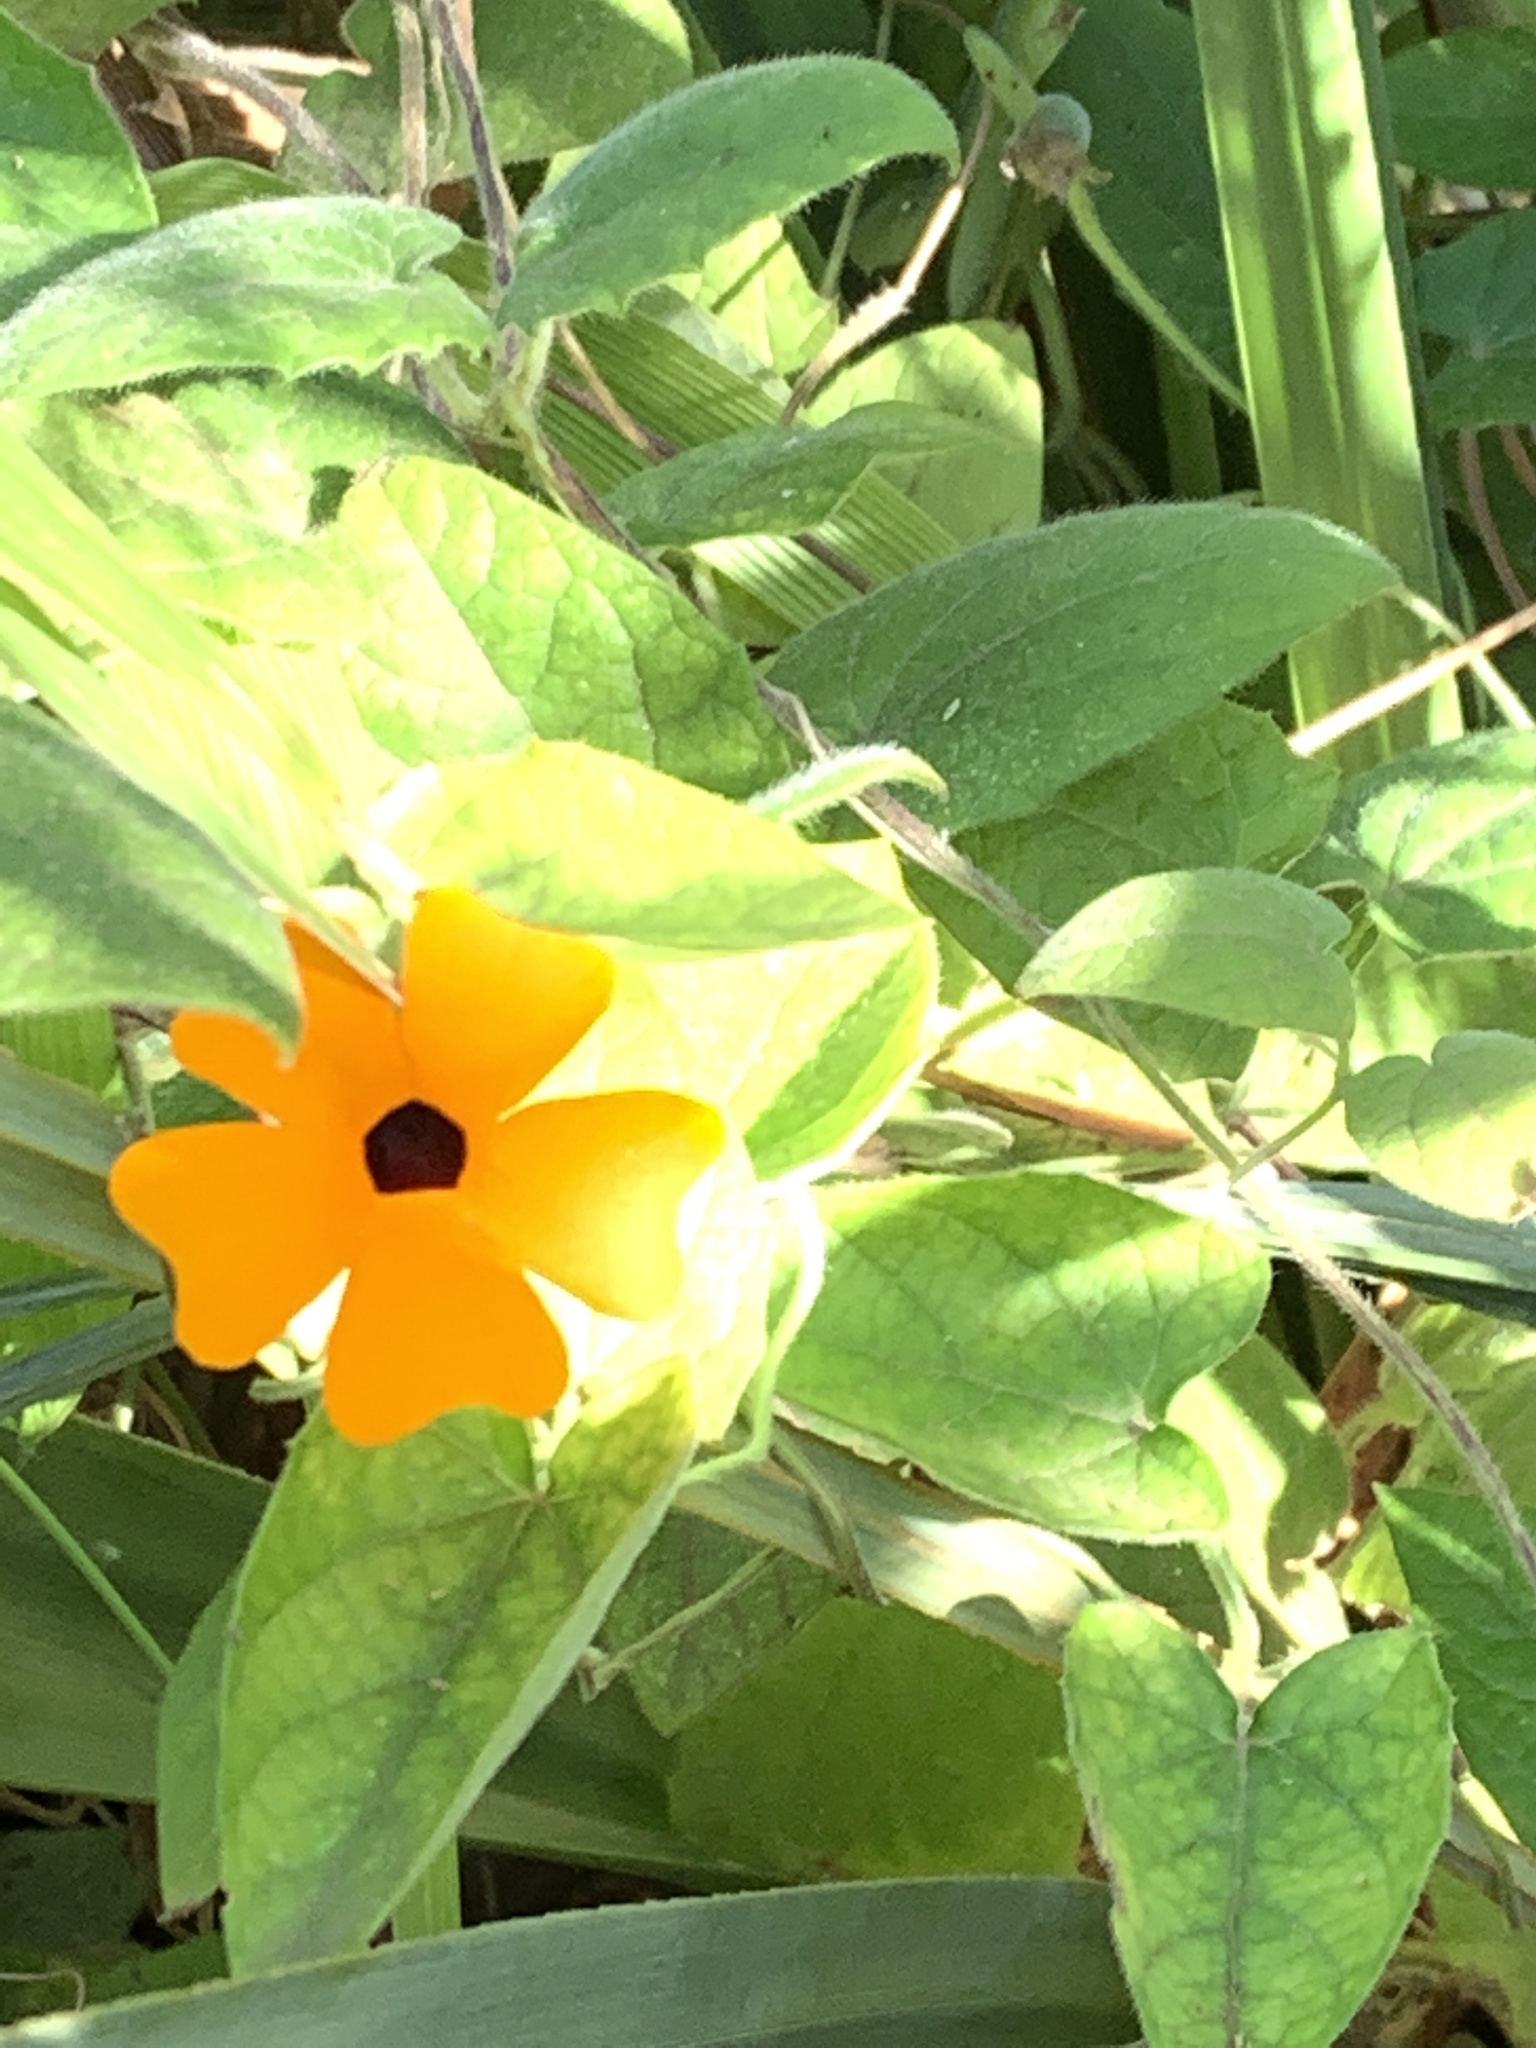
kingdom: Plantae
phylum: Tracheophyta
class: Magnoliopsida
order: Lamiales
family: Acanthaceae
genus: Thunbergia
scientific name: Thunbergia alata
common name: Blackeyed susan vine
